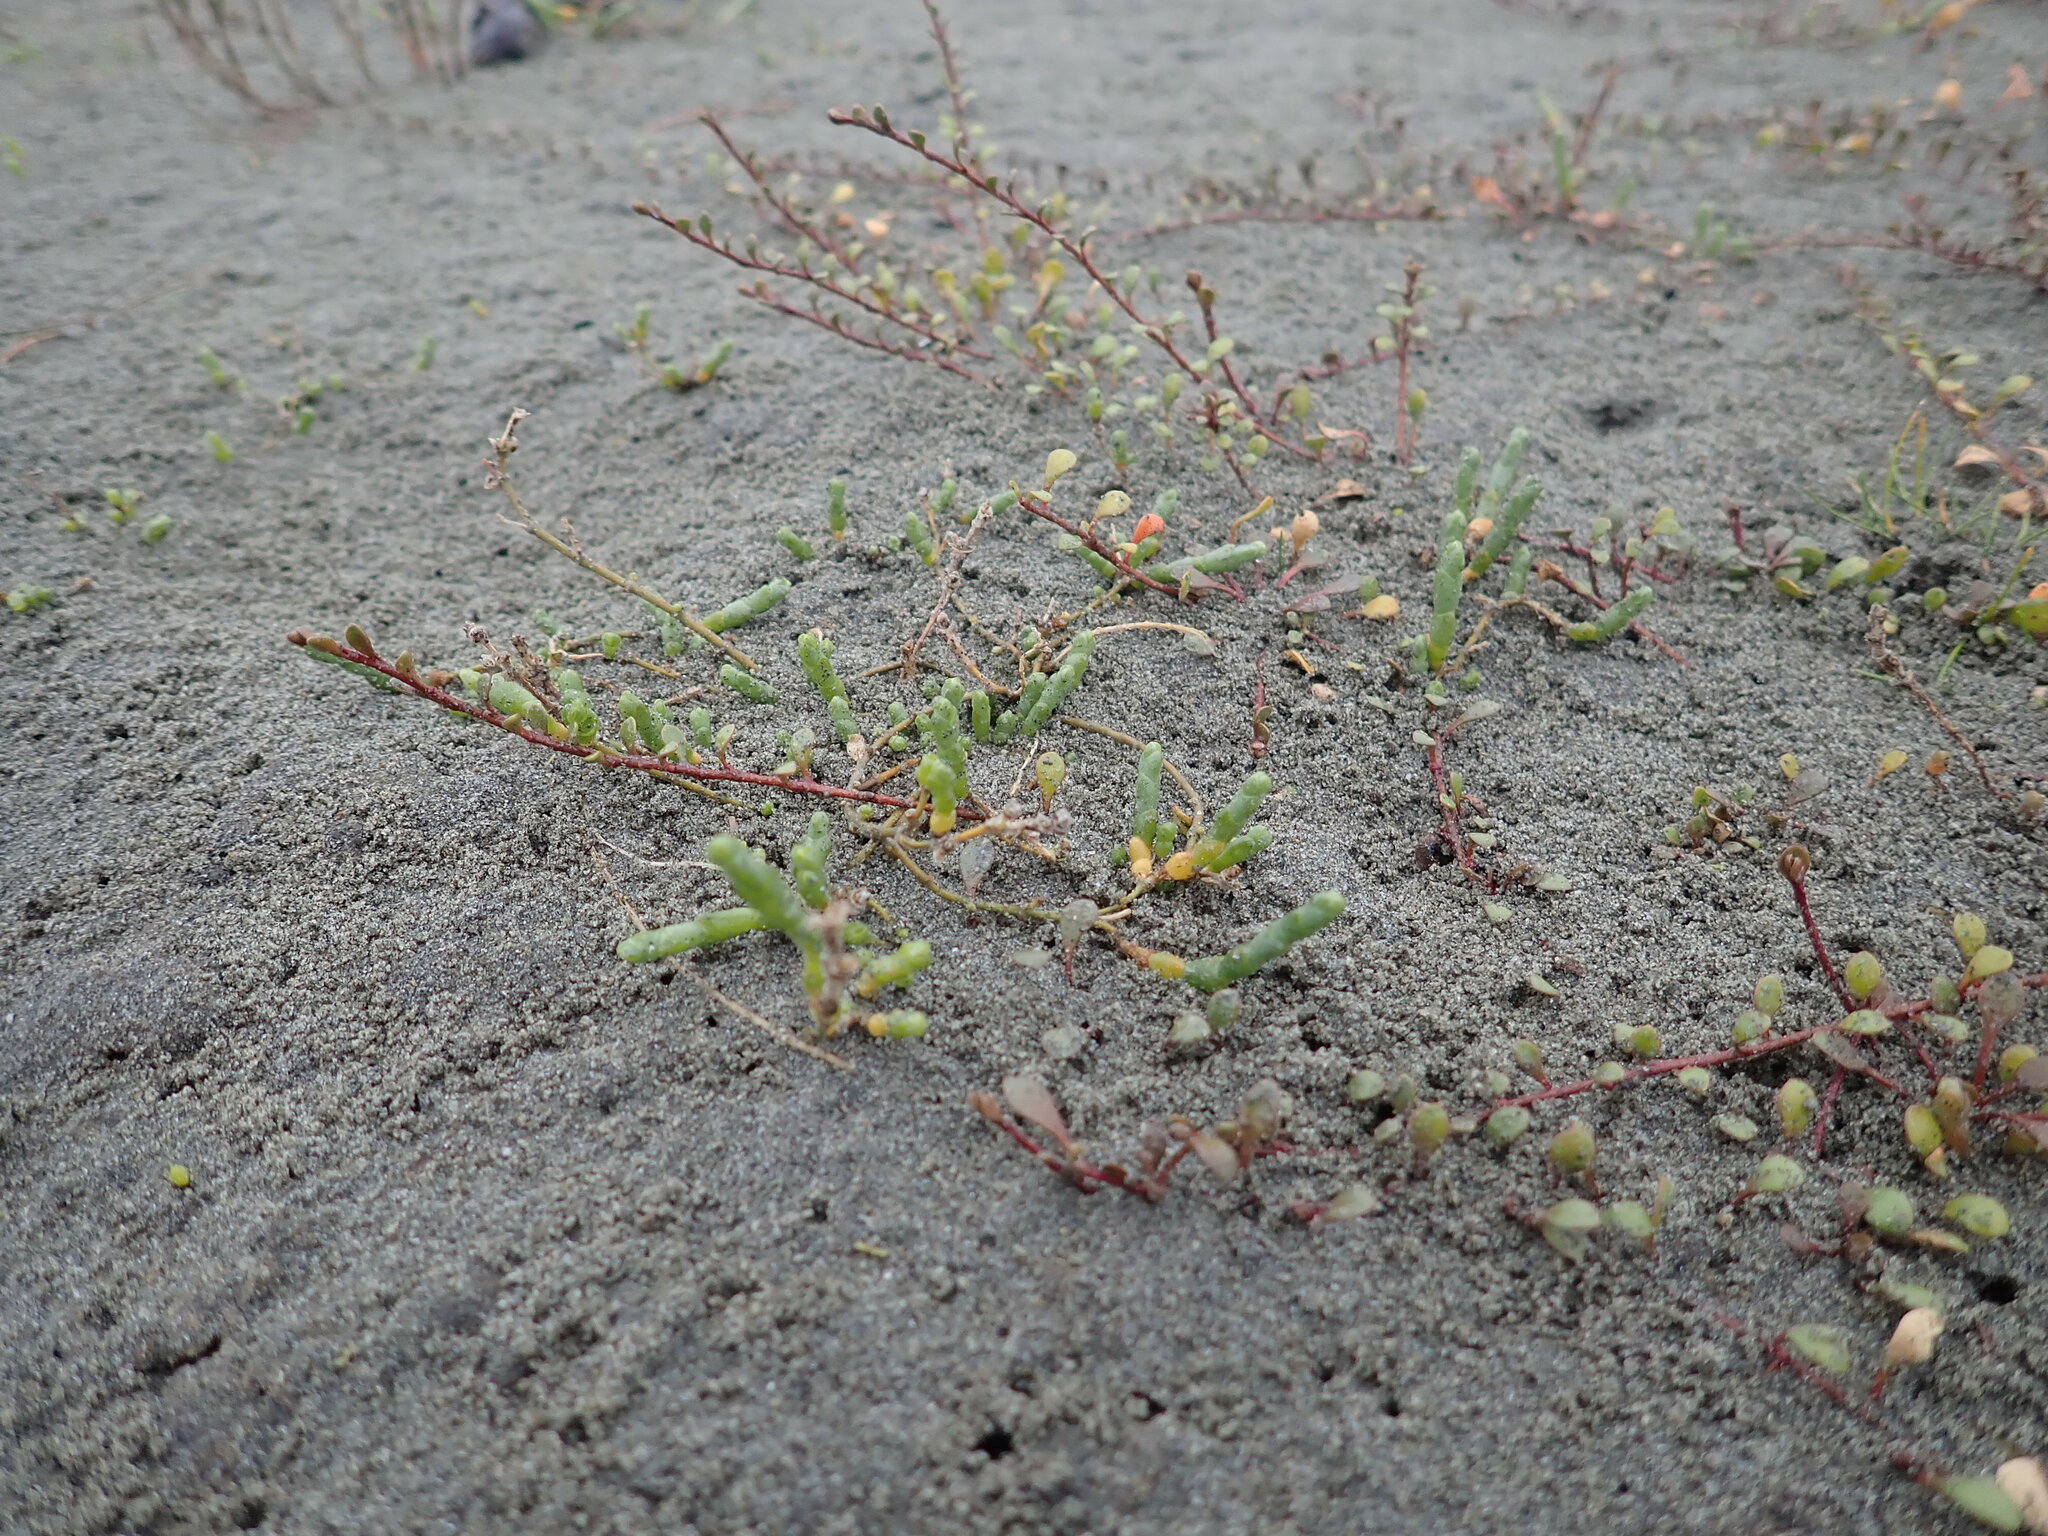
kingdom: Plantae
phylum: Tracheophyta
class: Magnoliopsida
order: Caryophyllales
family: Amaranthaceae
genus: Salicornia
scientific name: Salicornia quinqueflora
